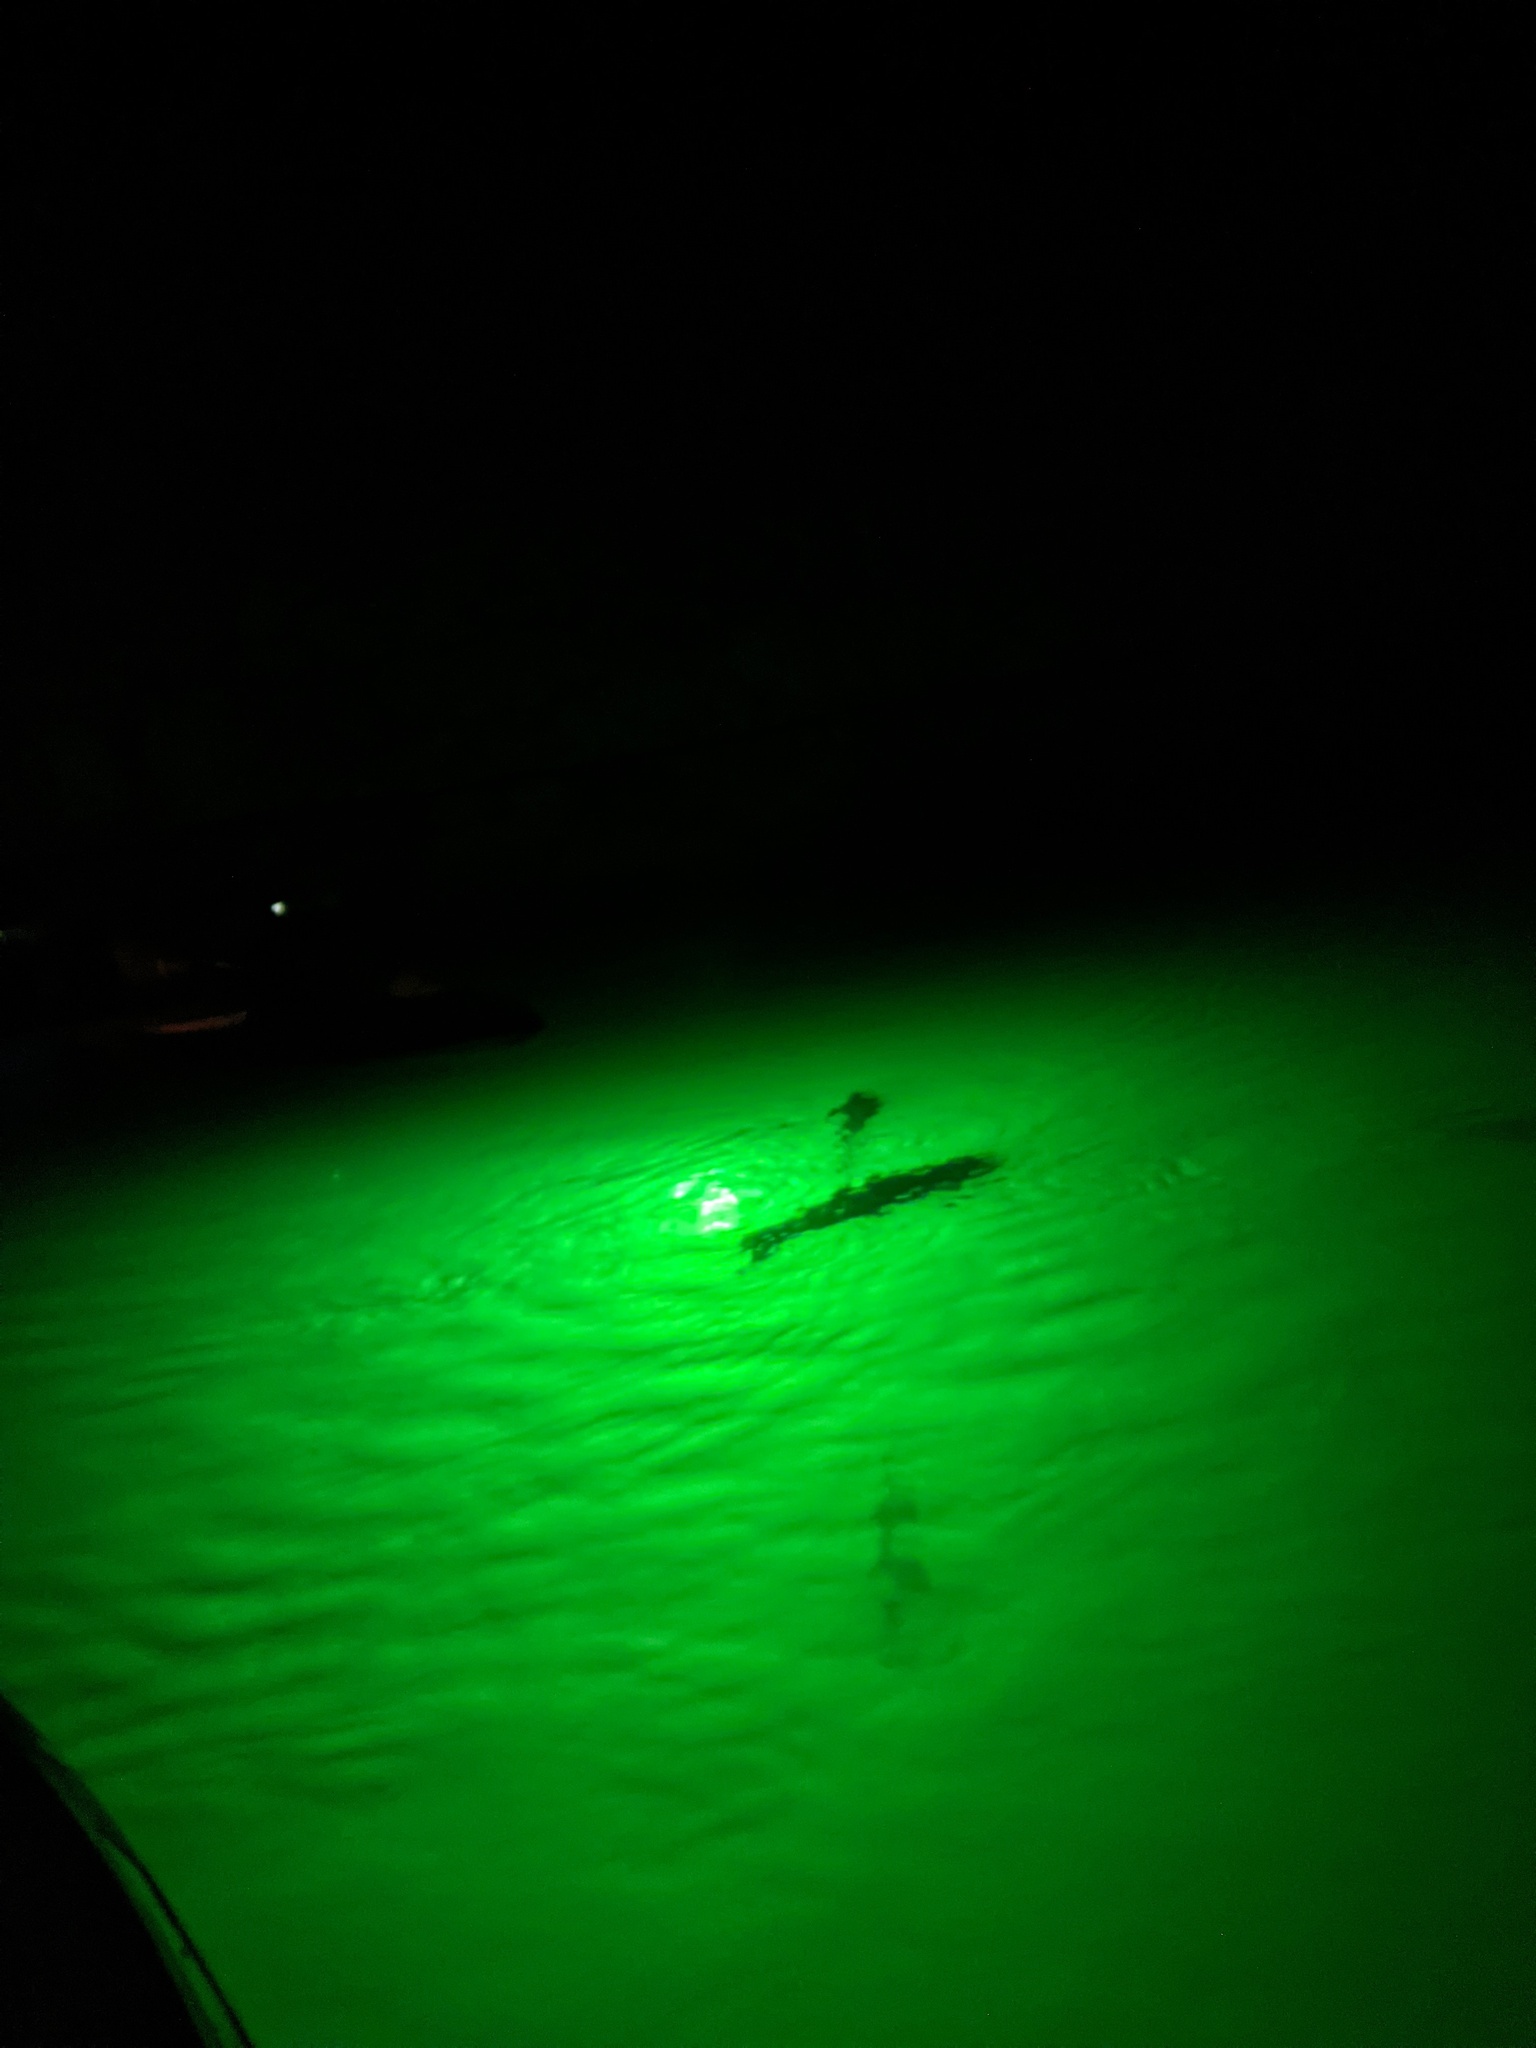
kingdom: Animalia
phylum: Chordata
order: Salmoniformes
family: Salmonidae
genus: Oncorhynchus
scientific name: Oncorhynchus mykiss
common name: Rainbow trout
